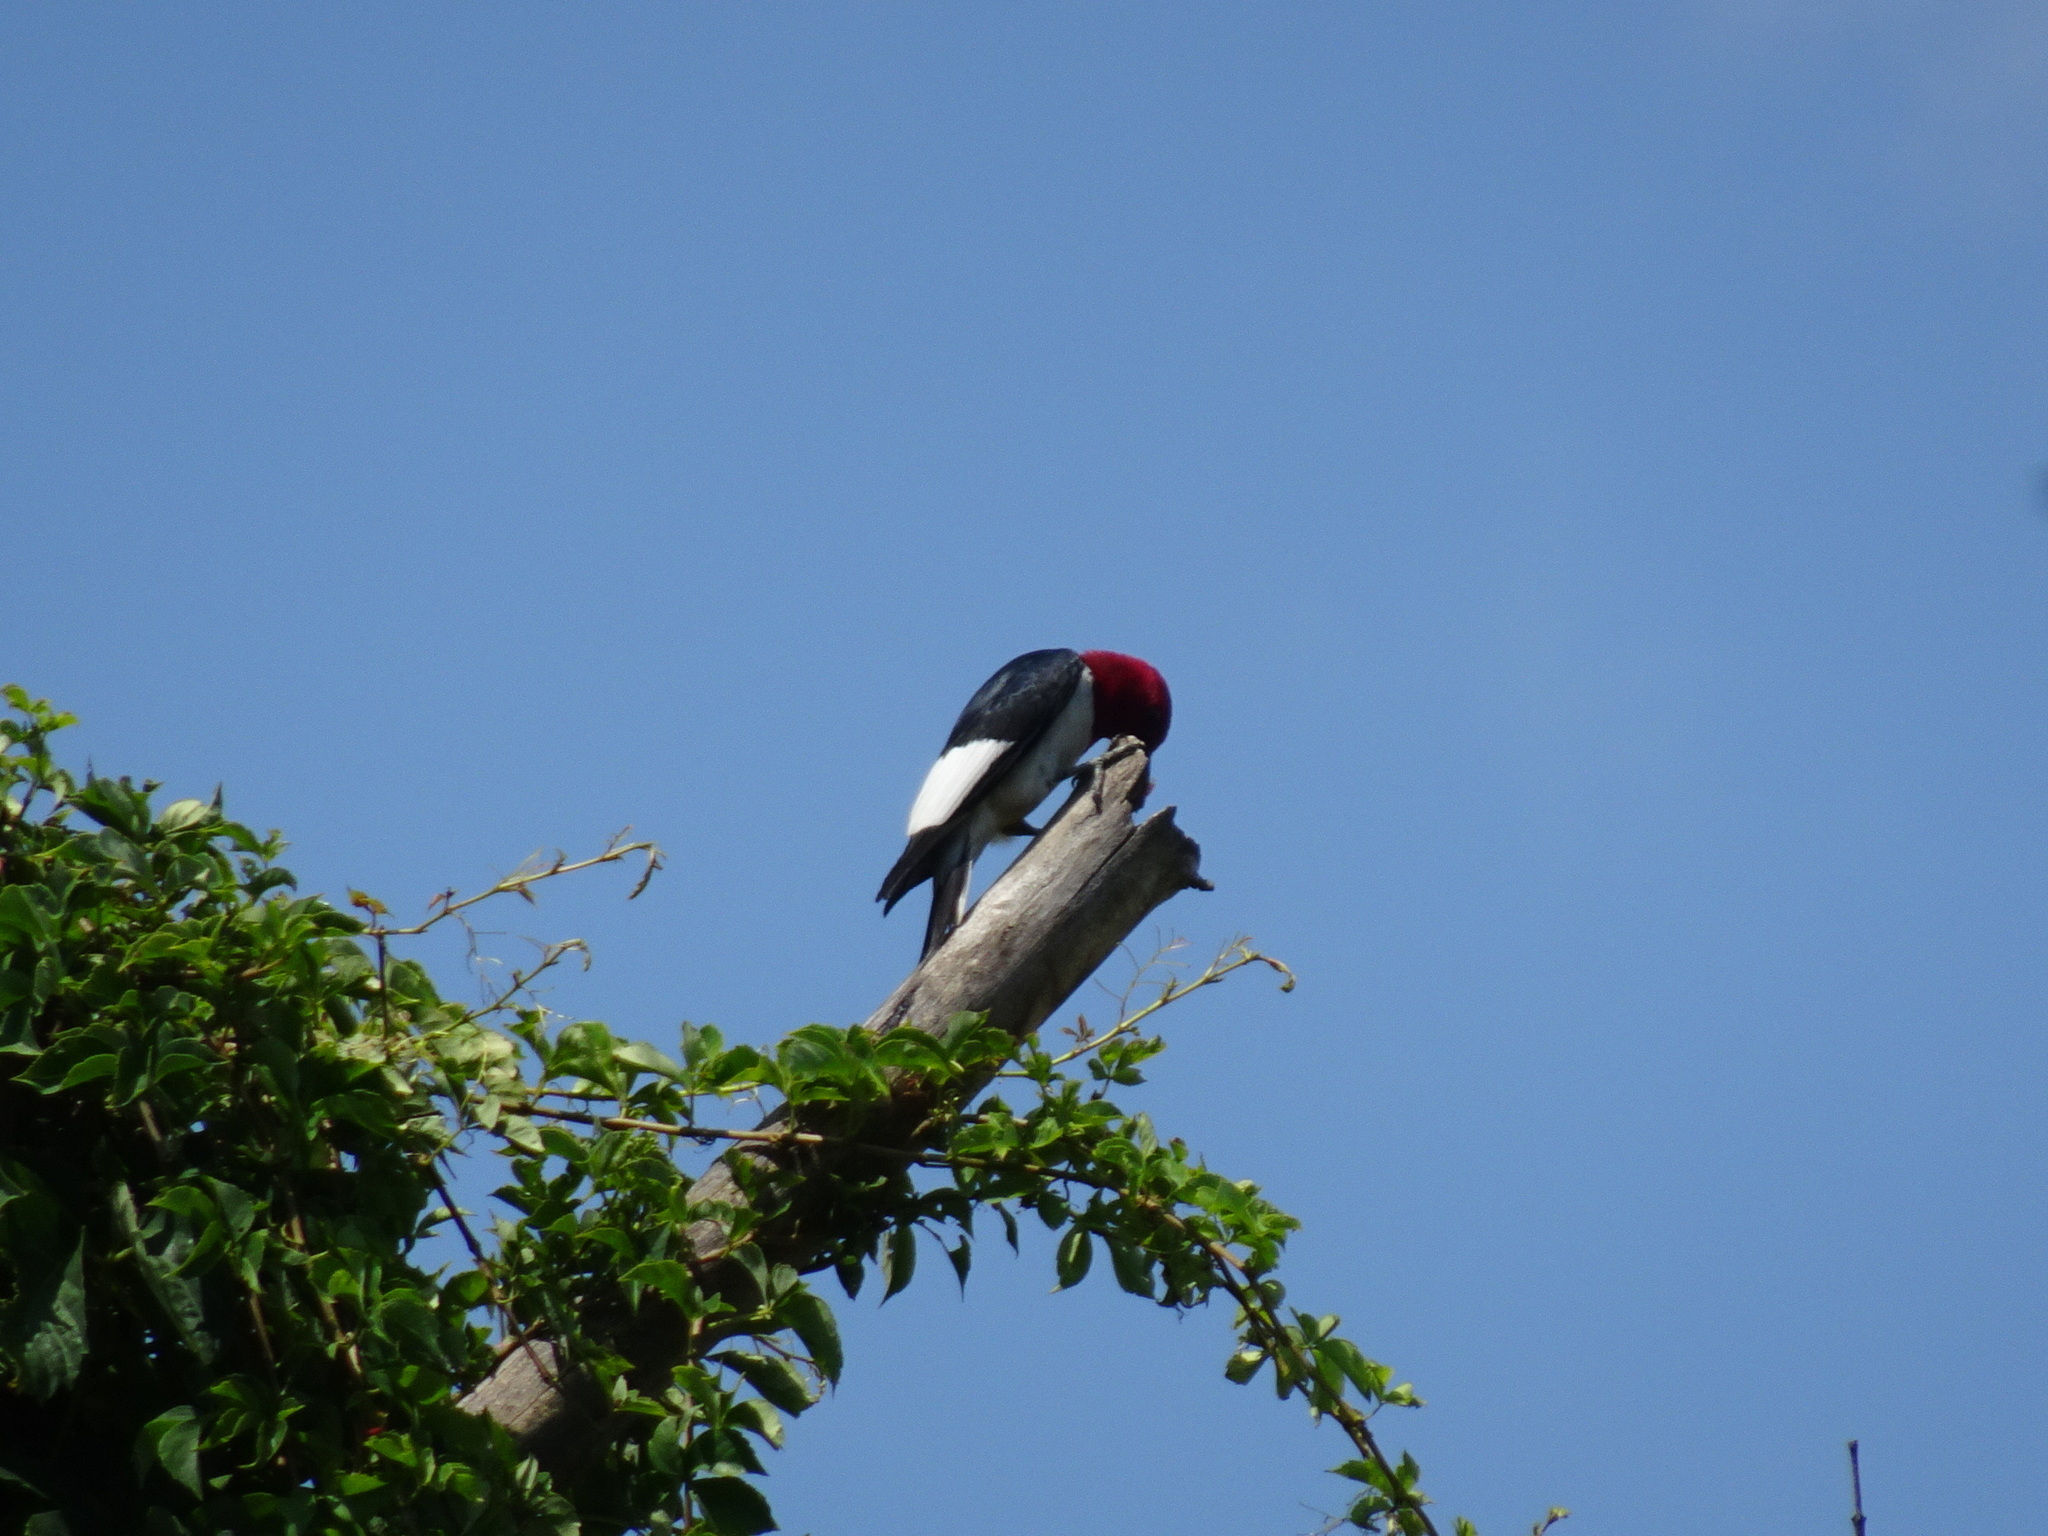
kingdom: Animalia
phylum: Chordata
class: Aves
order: Piciformes
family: Picidae
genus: Melanerpes
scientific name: Melanerpes erythrocephalus
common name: Red-headed woodpecker
